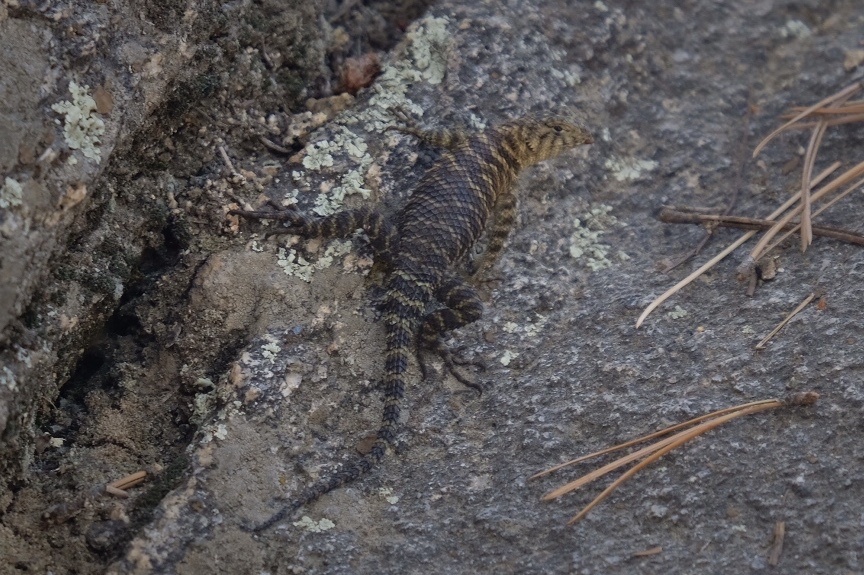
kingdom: Animalia
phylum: Chordata
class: Squamata
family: Phrynosomatidae
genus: Sceloporus
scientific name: Sceloporus orcutti
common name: Granite spiny lizard
